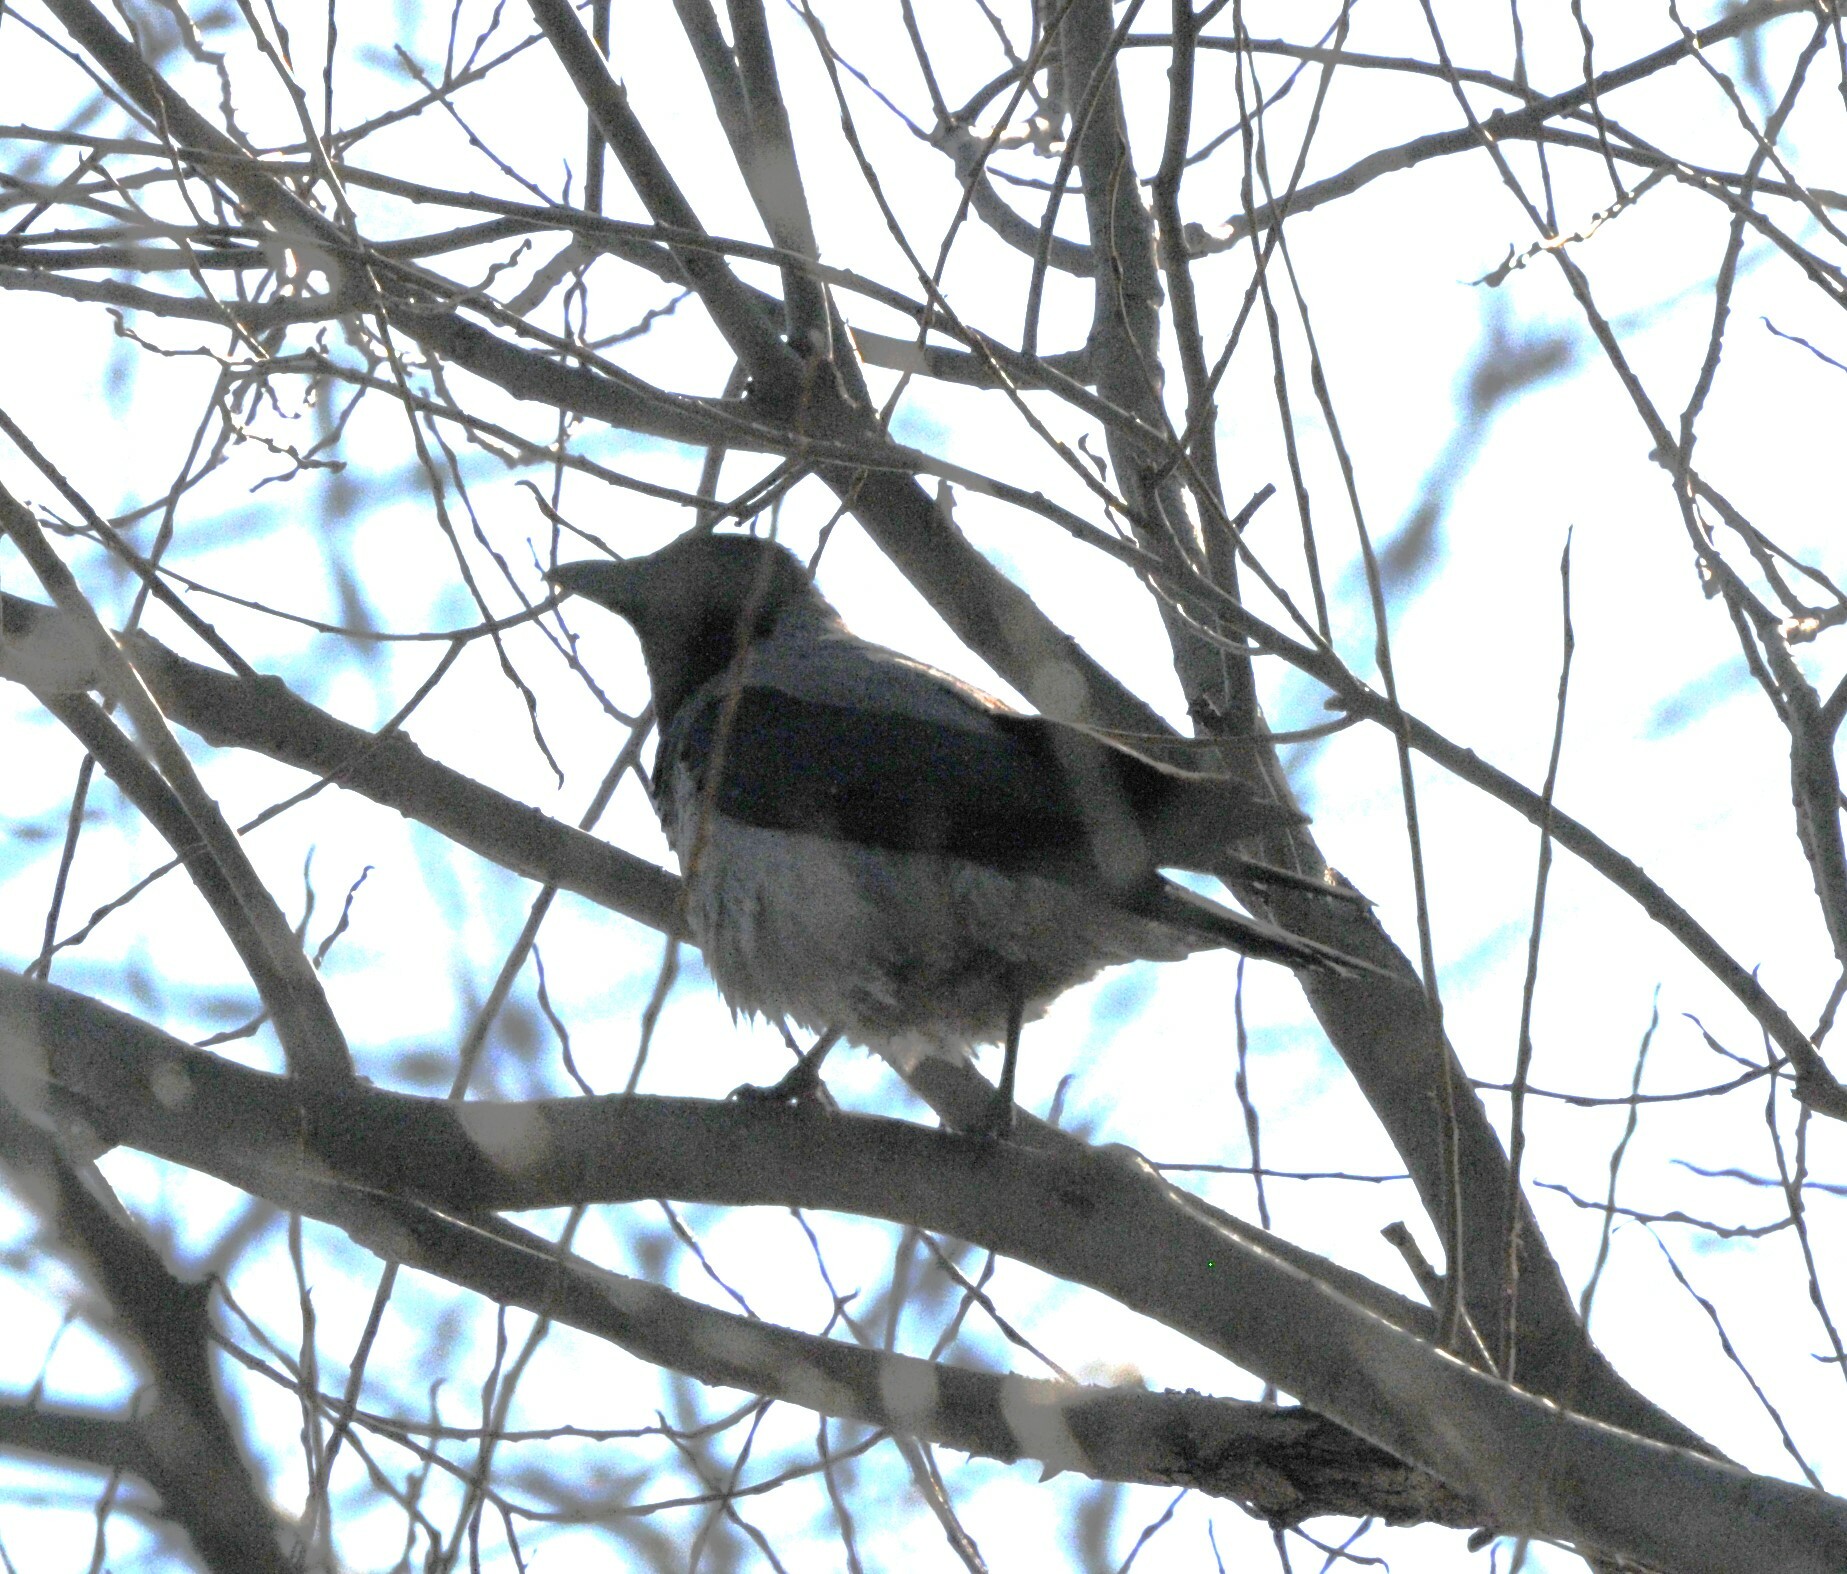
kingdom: Animalia
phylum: Chordata
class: Aves
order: Passeriformes
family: Corvidae
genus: Corvus
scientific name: Corvus cornix
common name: Hooded crow
